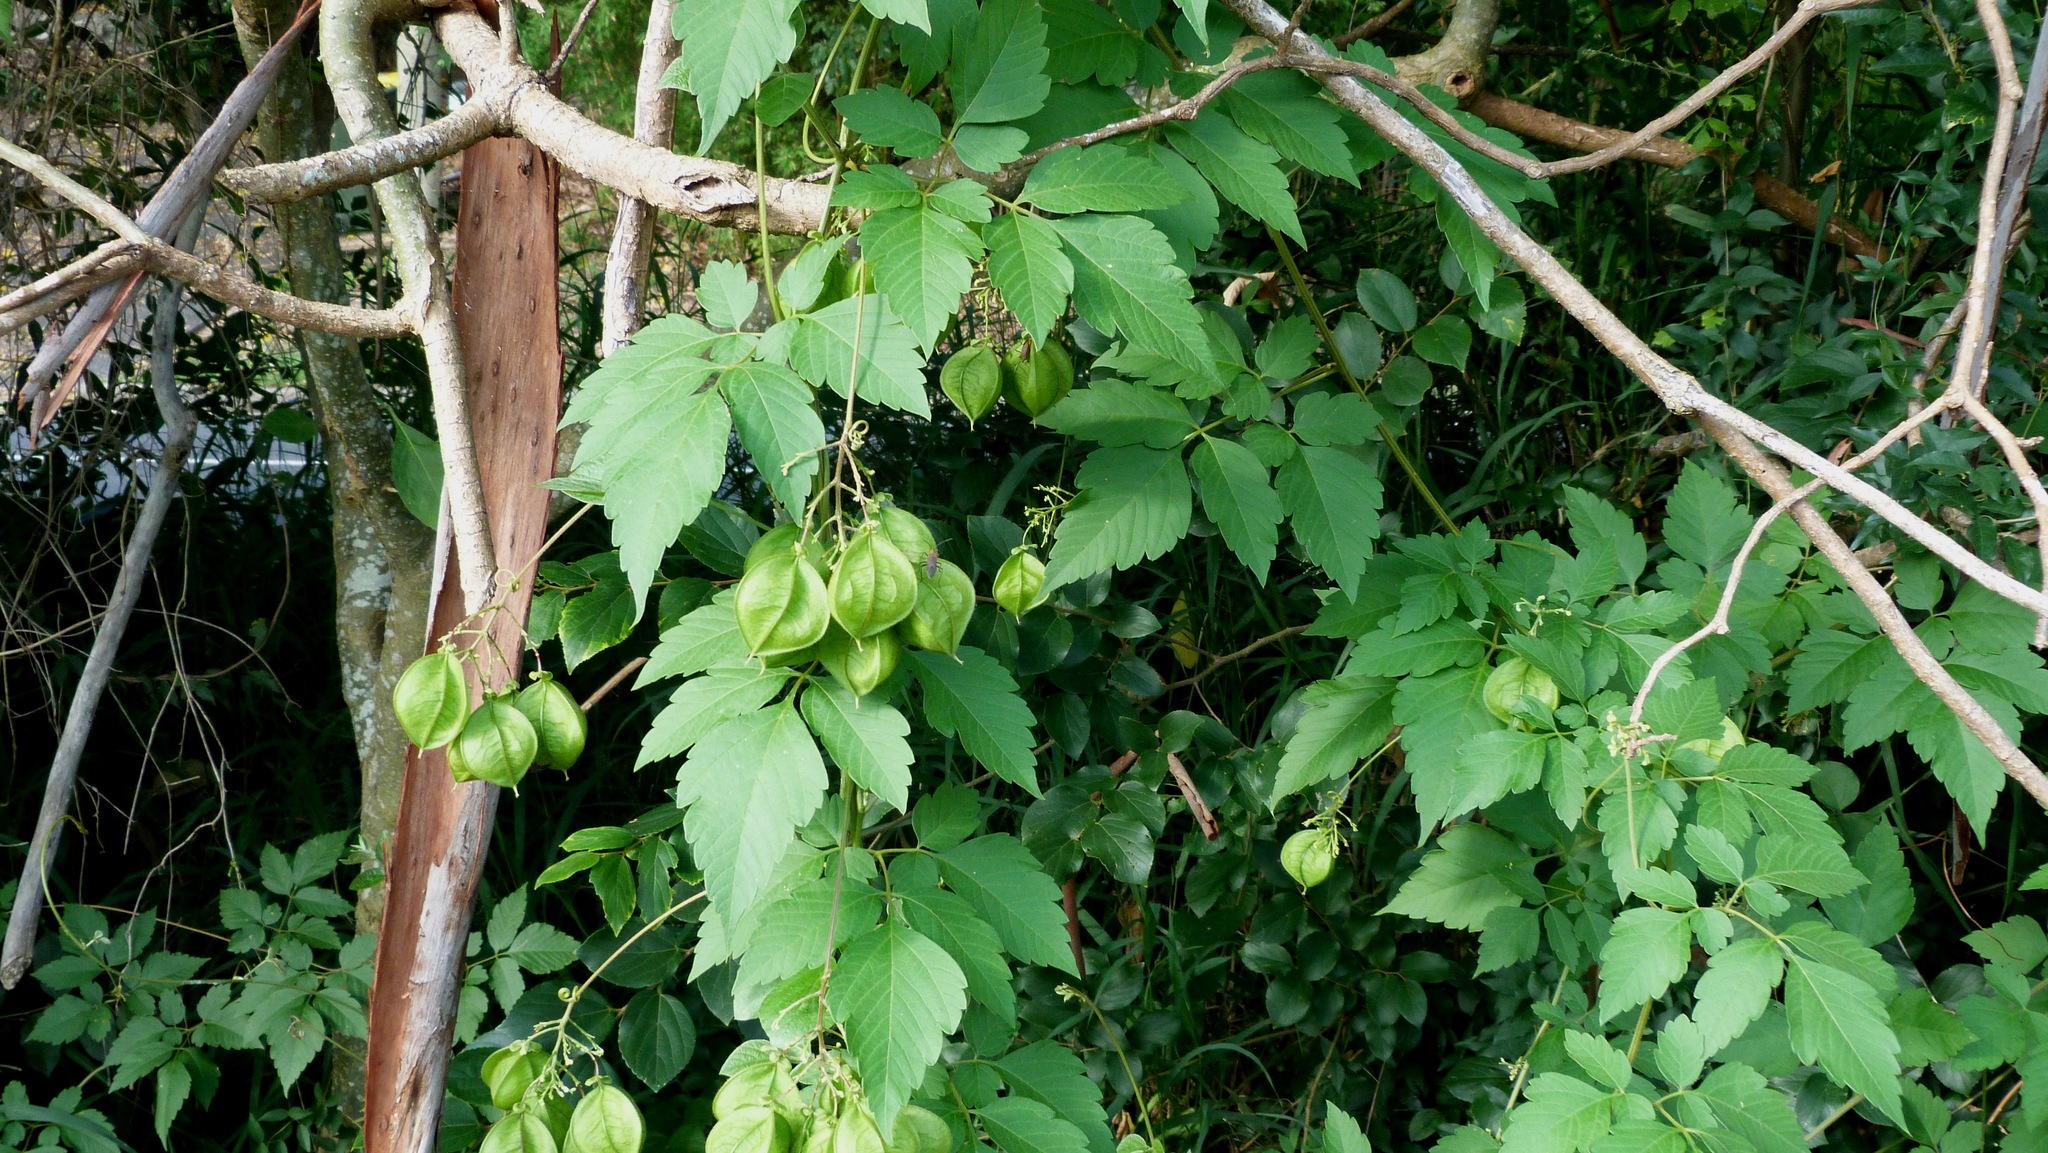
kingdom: Plantae
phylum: Tracheophyta
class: Magnoliopsida
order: Sapindales
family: Sapindaceae
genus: Cardiospermum
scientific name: Cardiospermum grandiflorum
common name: Balloon vine
